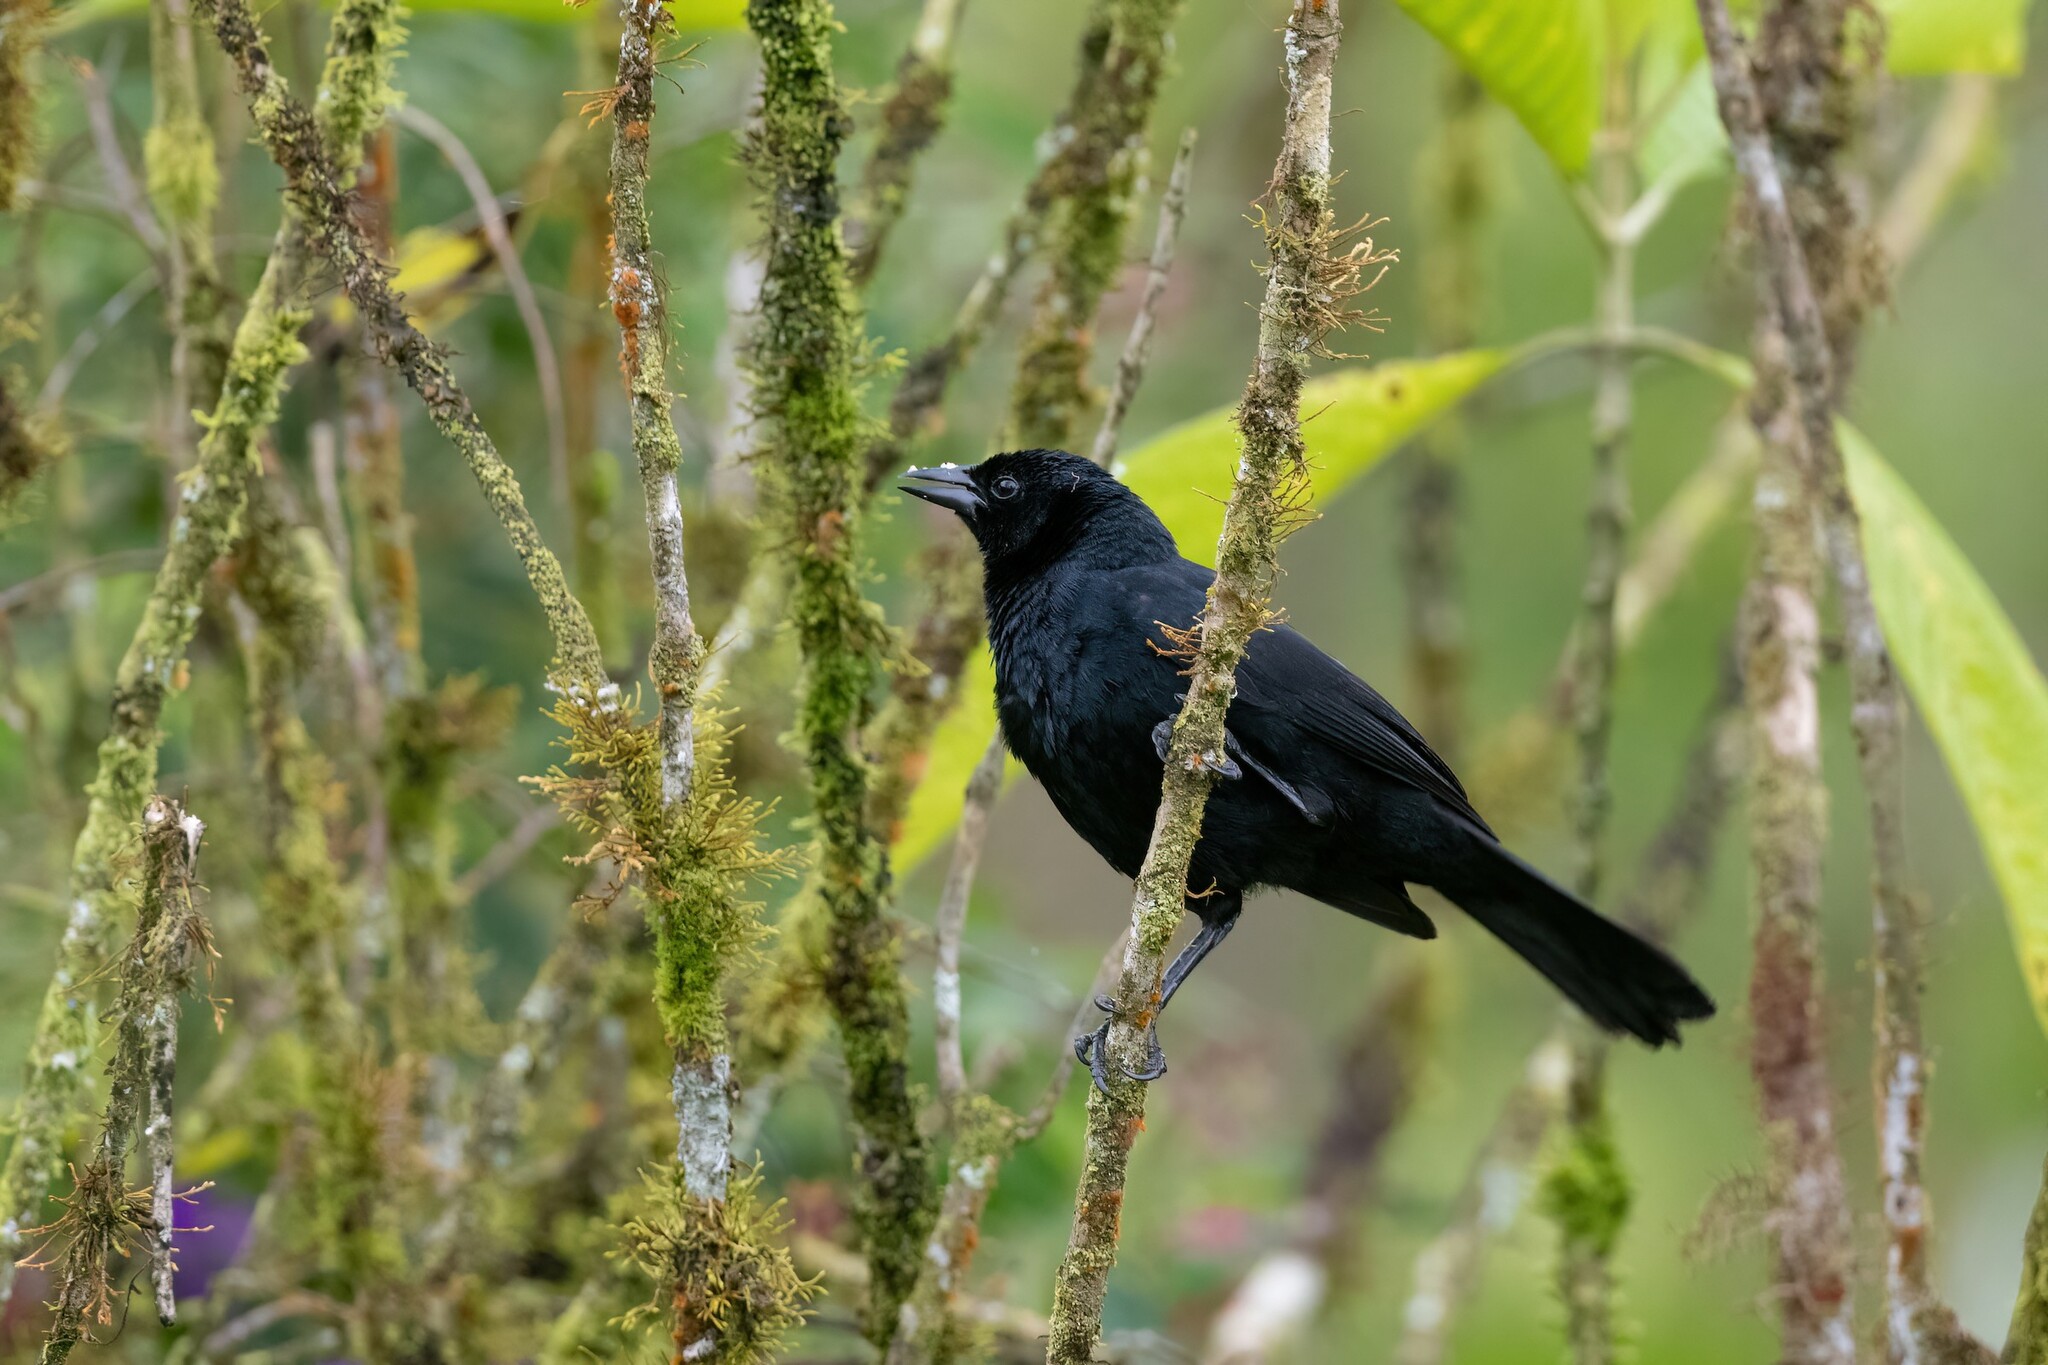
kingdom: Animalia
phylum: Chordata
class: Aves
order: Passeriformes
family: Icteridae
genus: Dives
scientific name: Dives warczewiczi
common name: Scrub blackbird
